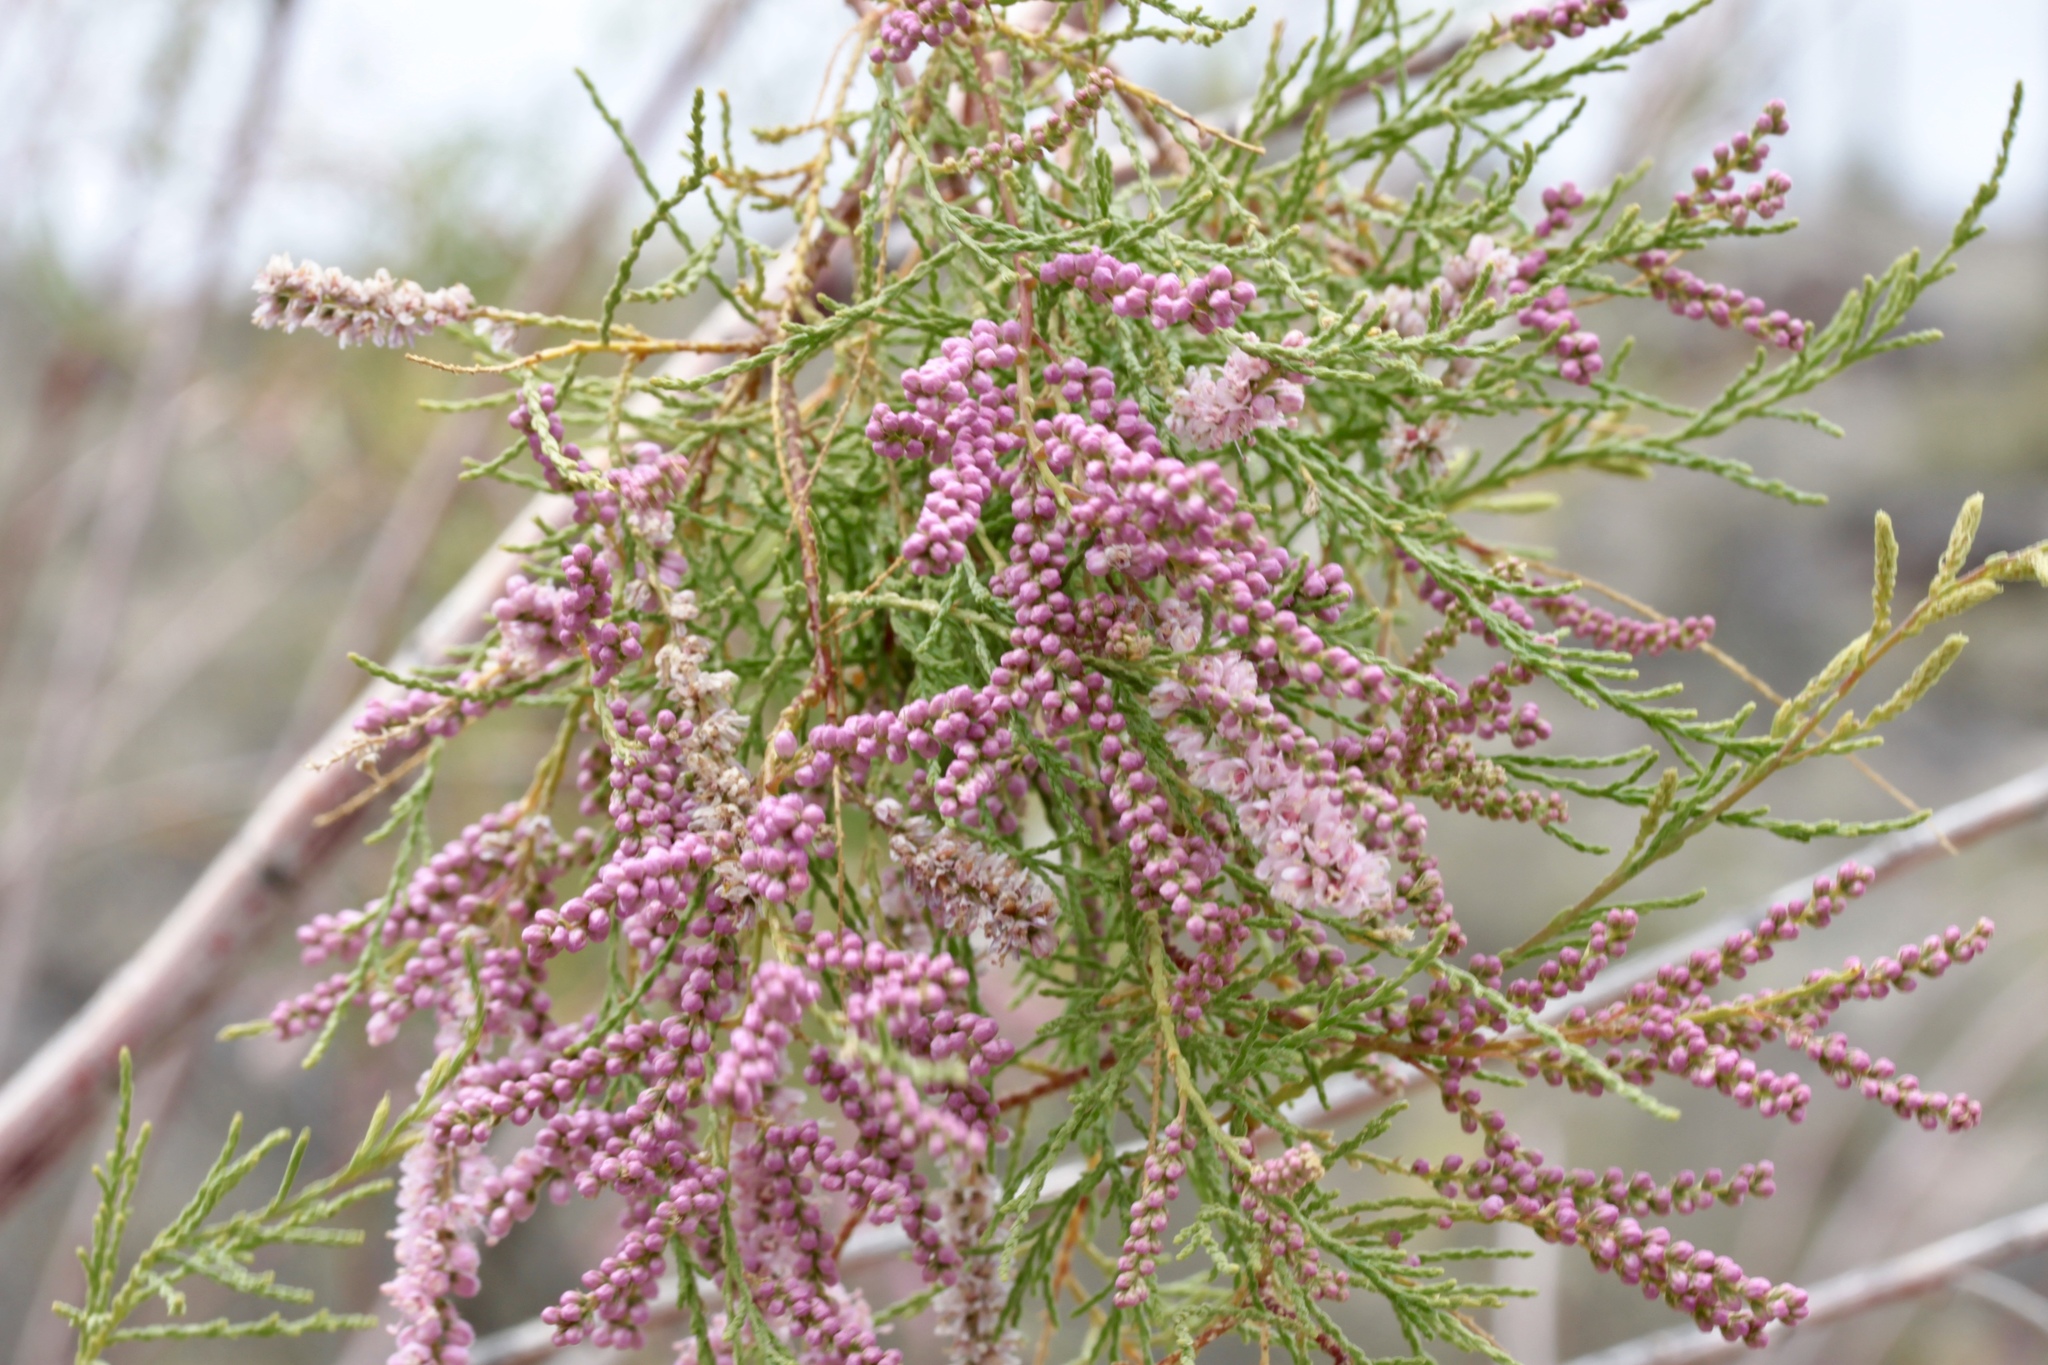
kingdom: Plantae
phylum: Tracheophyta
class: Magnoliopsida
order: Caryophyllales
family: Tamaricaceae
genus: Tamarix
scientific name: Tamarix
